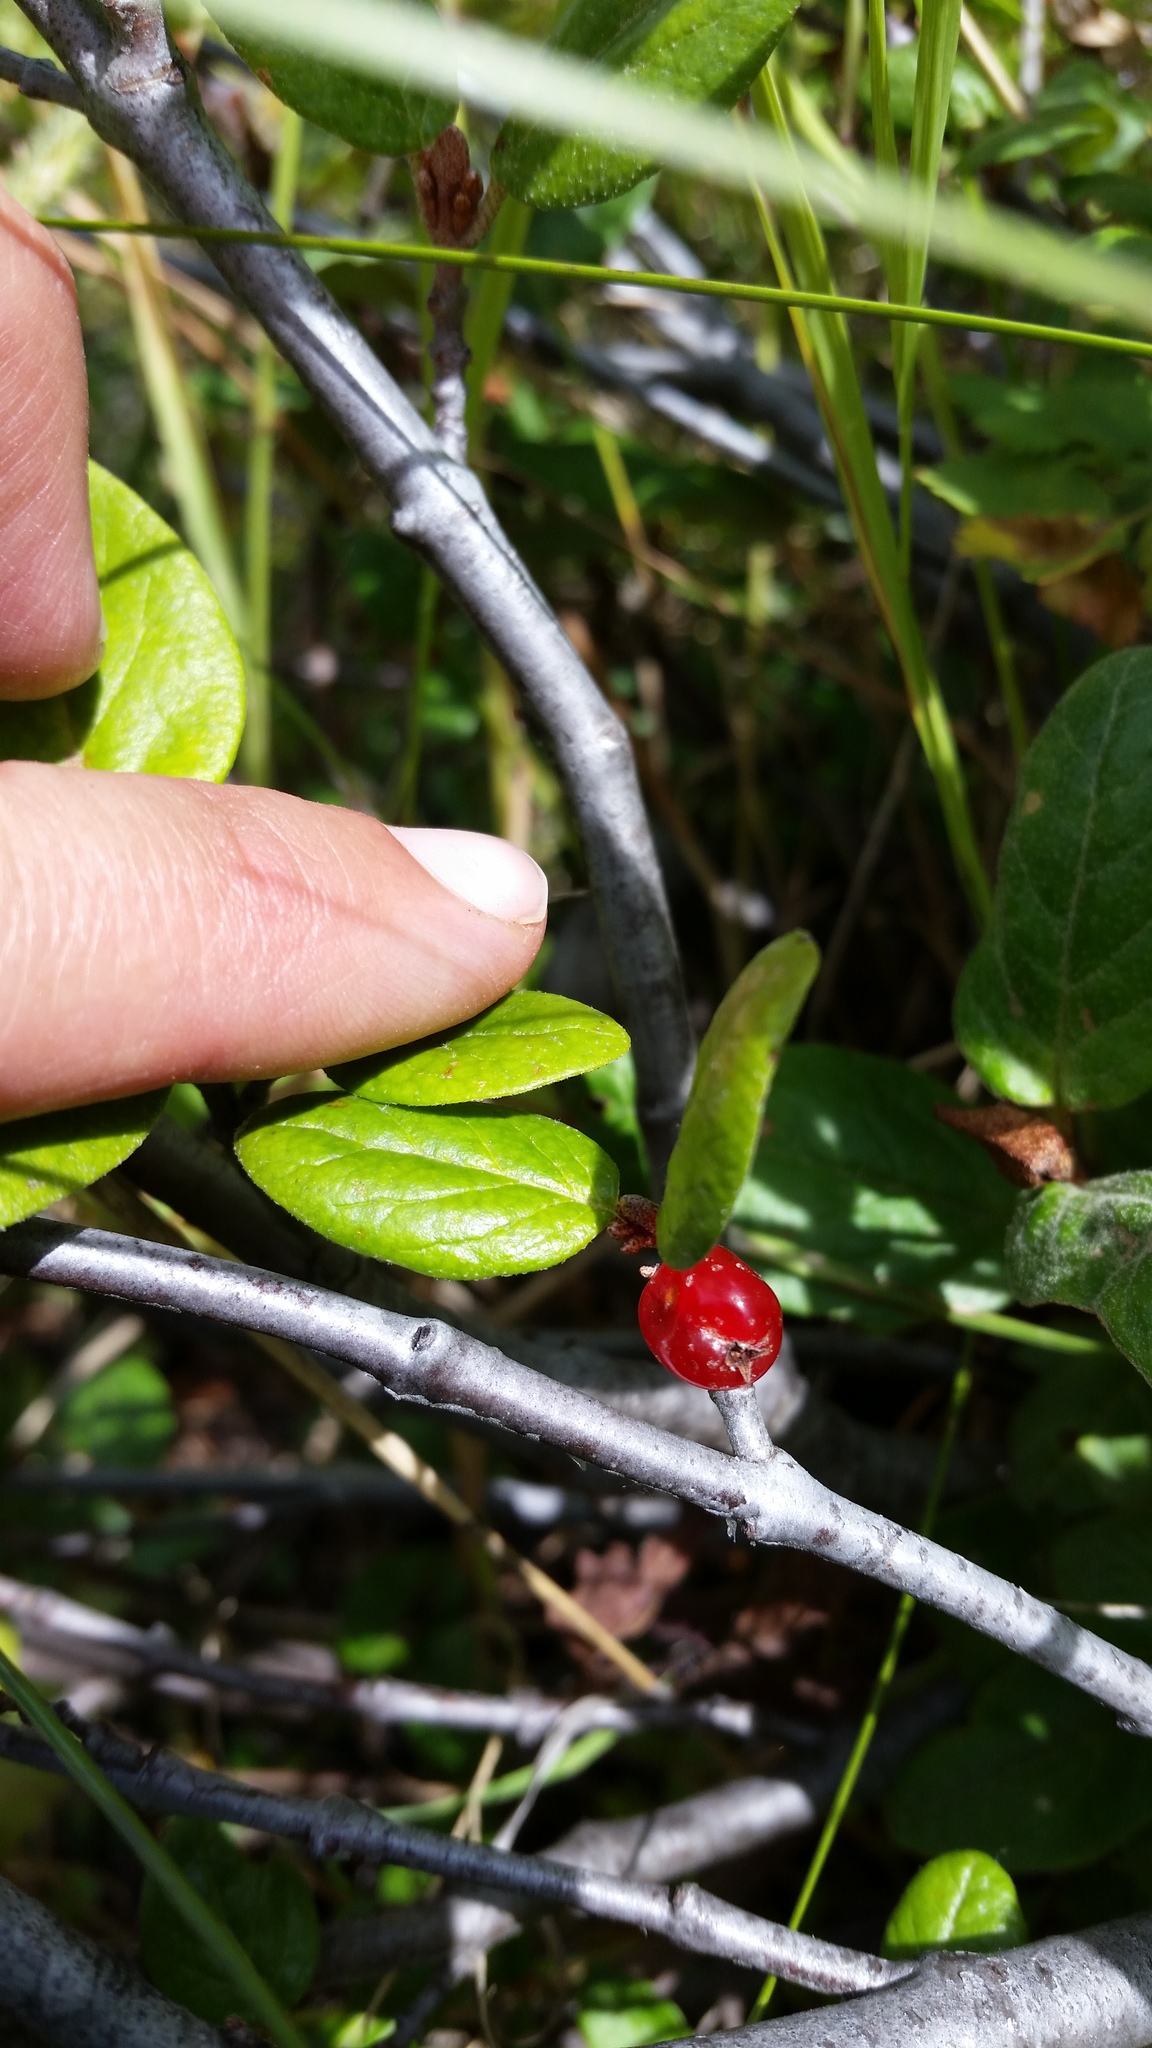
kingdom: Plantae
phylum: Tracheophyta
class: Magnoliopsida
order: Rosales
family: Elaeagnaceae
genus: Shepherdia
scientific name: Shepherdia canadensis
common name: Soapberry
